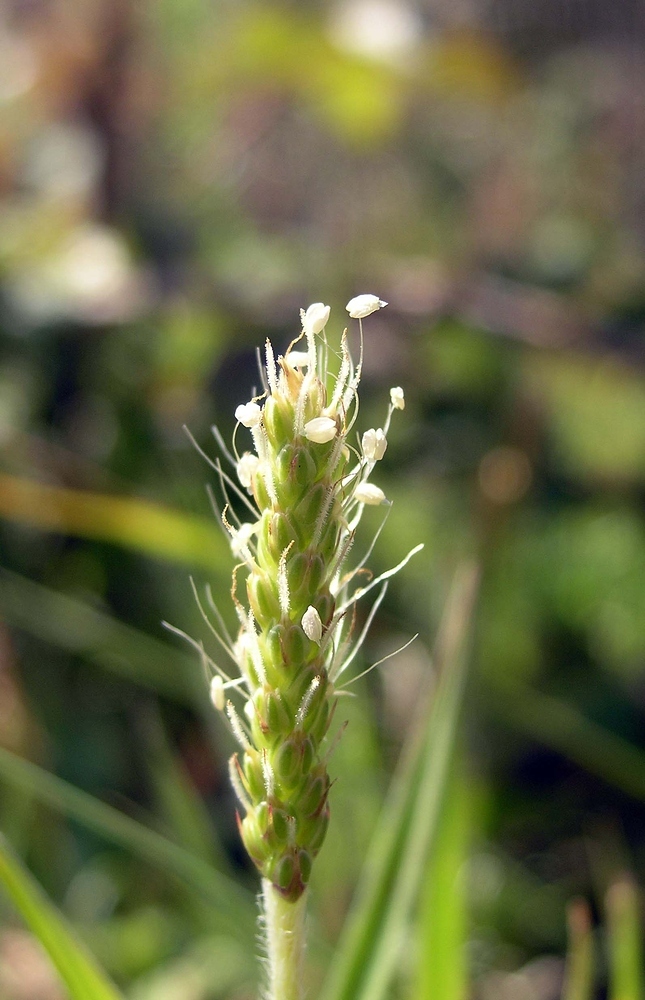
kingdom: Plantae
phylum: Tracheophyta
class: Magnoliopsida
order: Lamiales
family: Plantaginaceae
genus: Plantago
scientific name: Plantago coronopus
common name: Buck's-horn plantain
